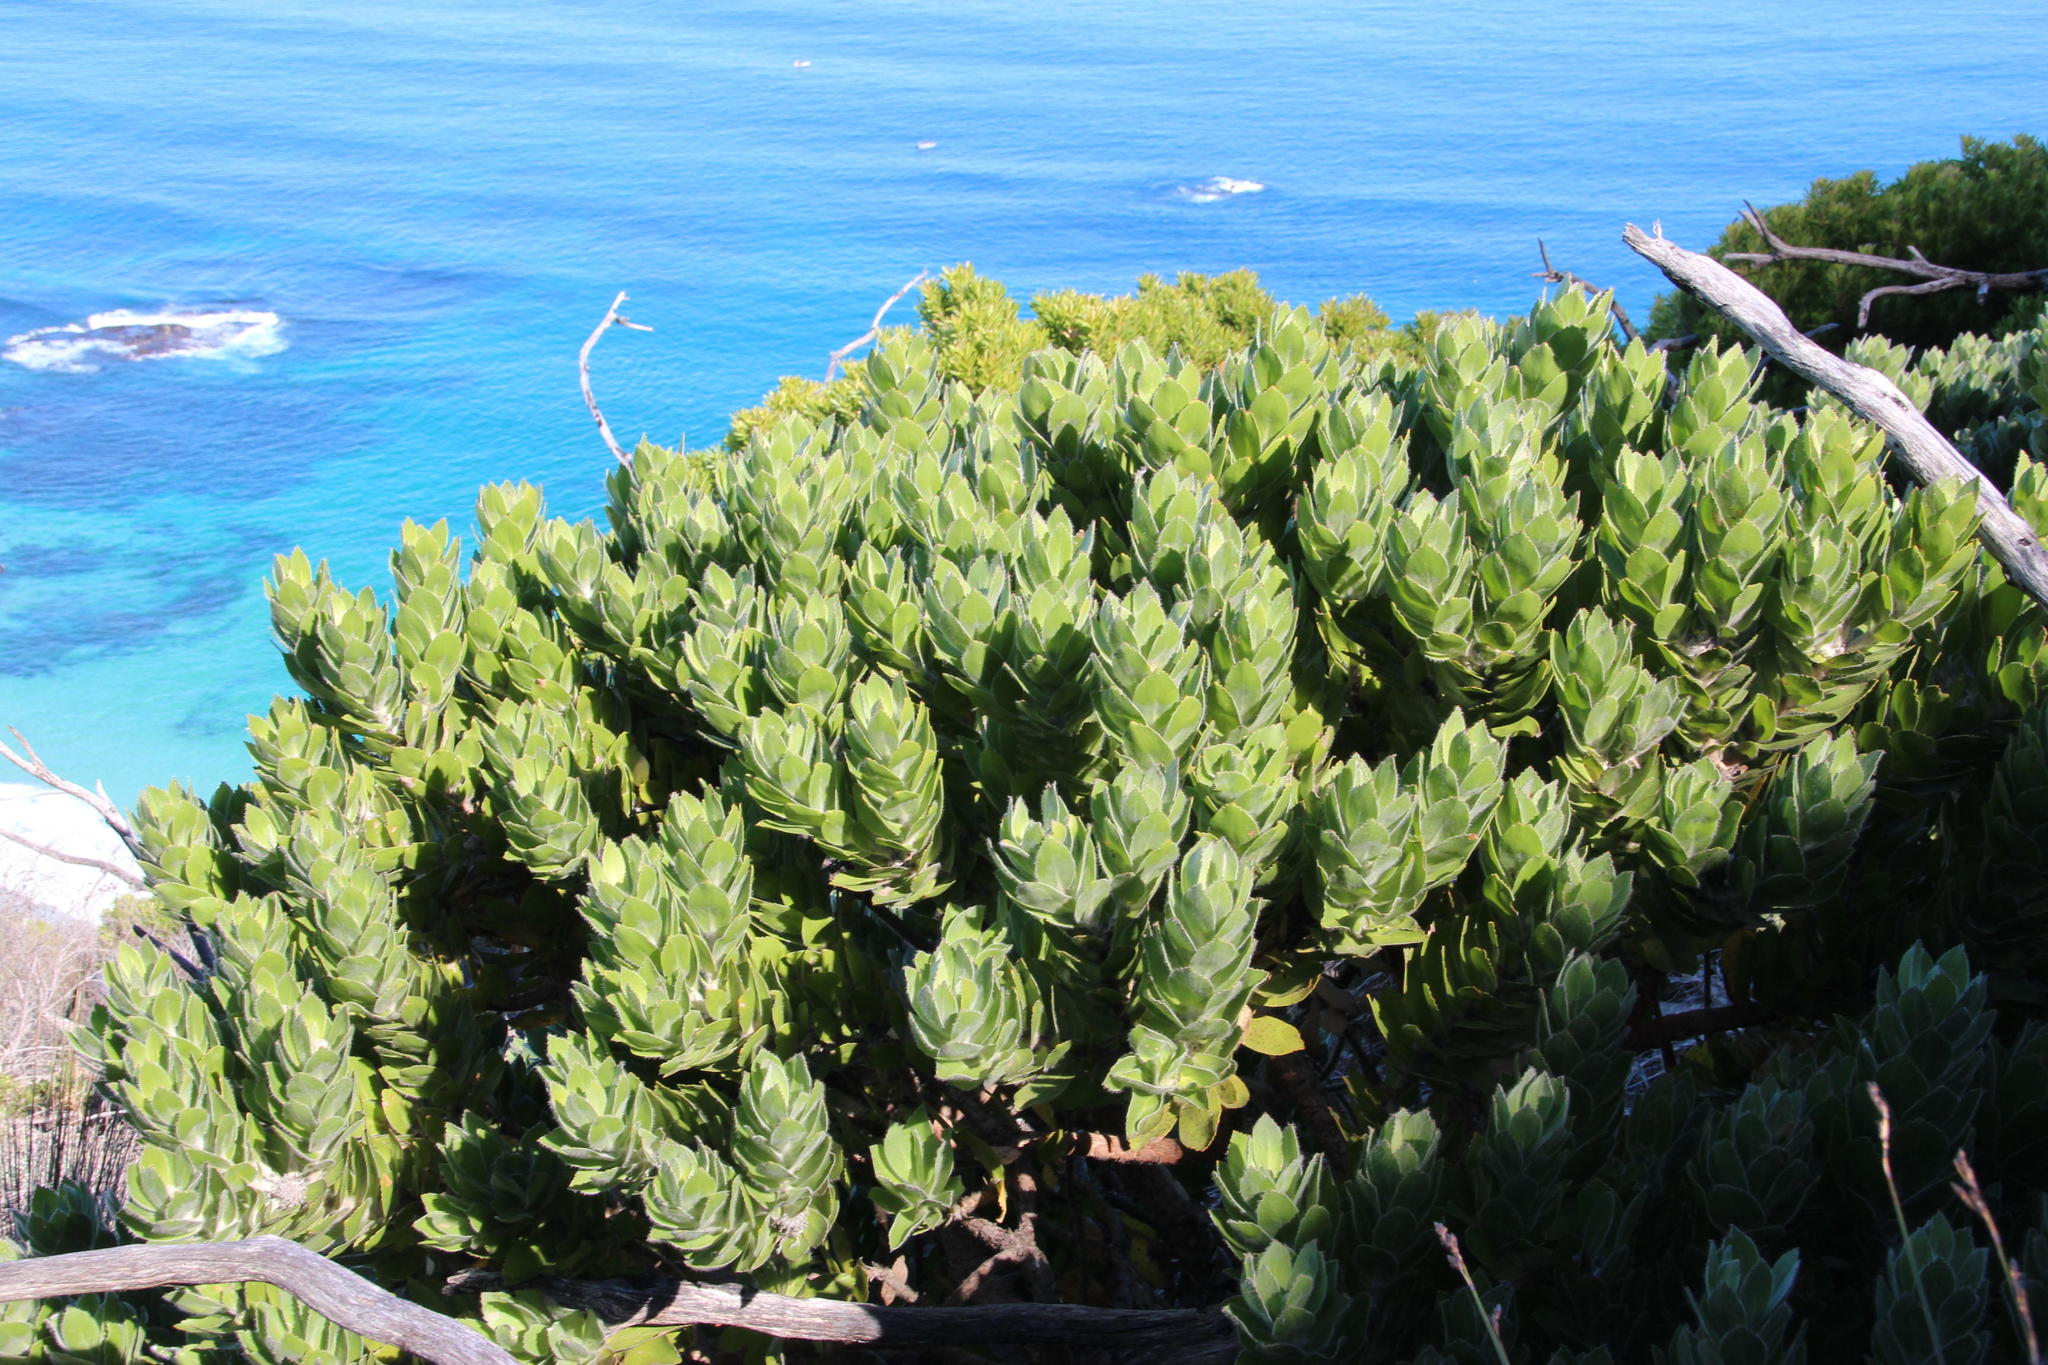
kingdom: Plantae
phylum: Tracheophyta
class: Magnoliopsida
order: Proteales
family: Proteaceae
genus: Leucospermum
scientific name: Leucospermum conocarpodendron
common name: Tree pincushion
